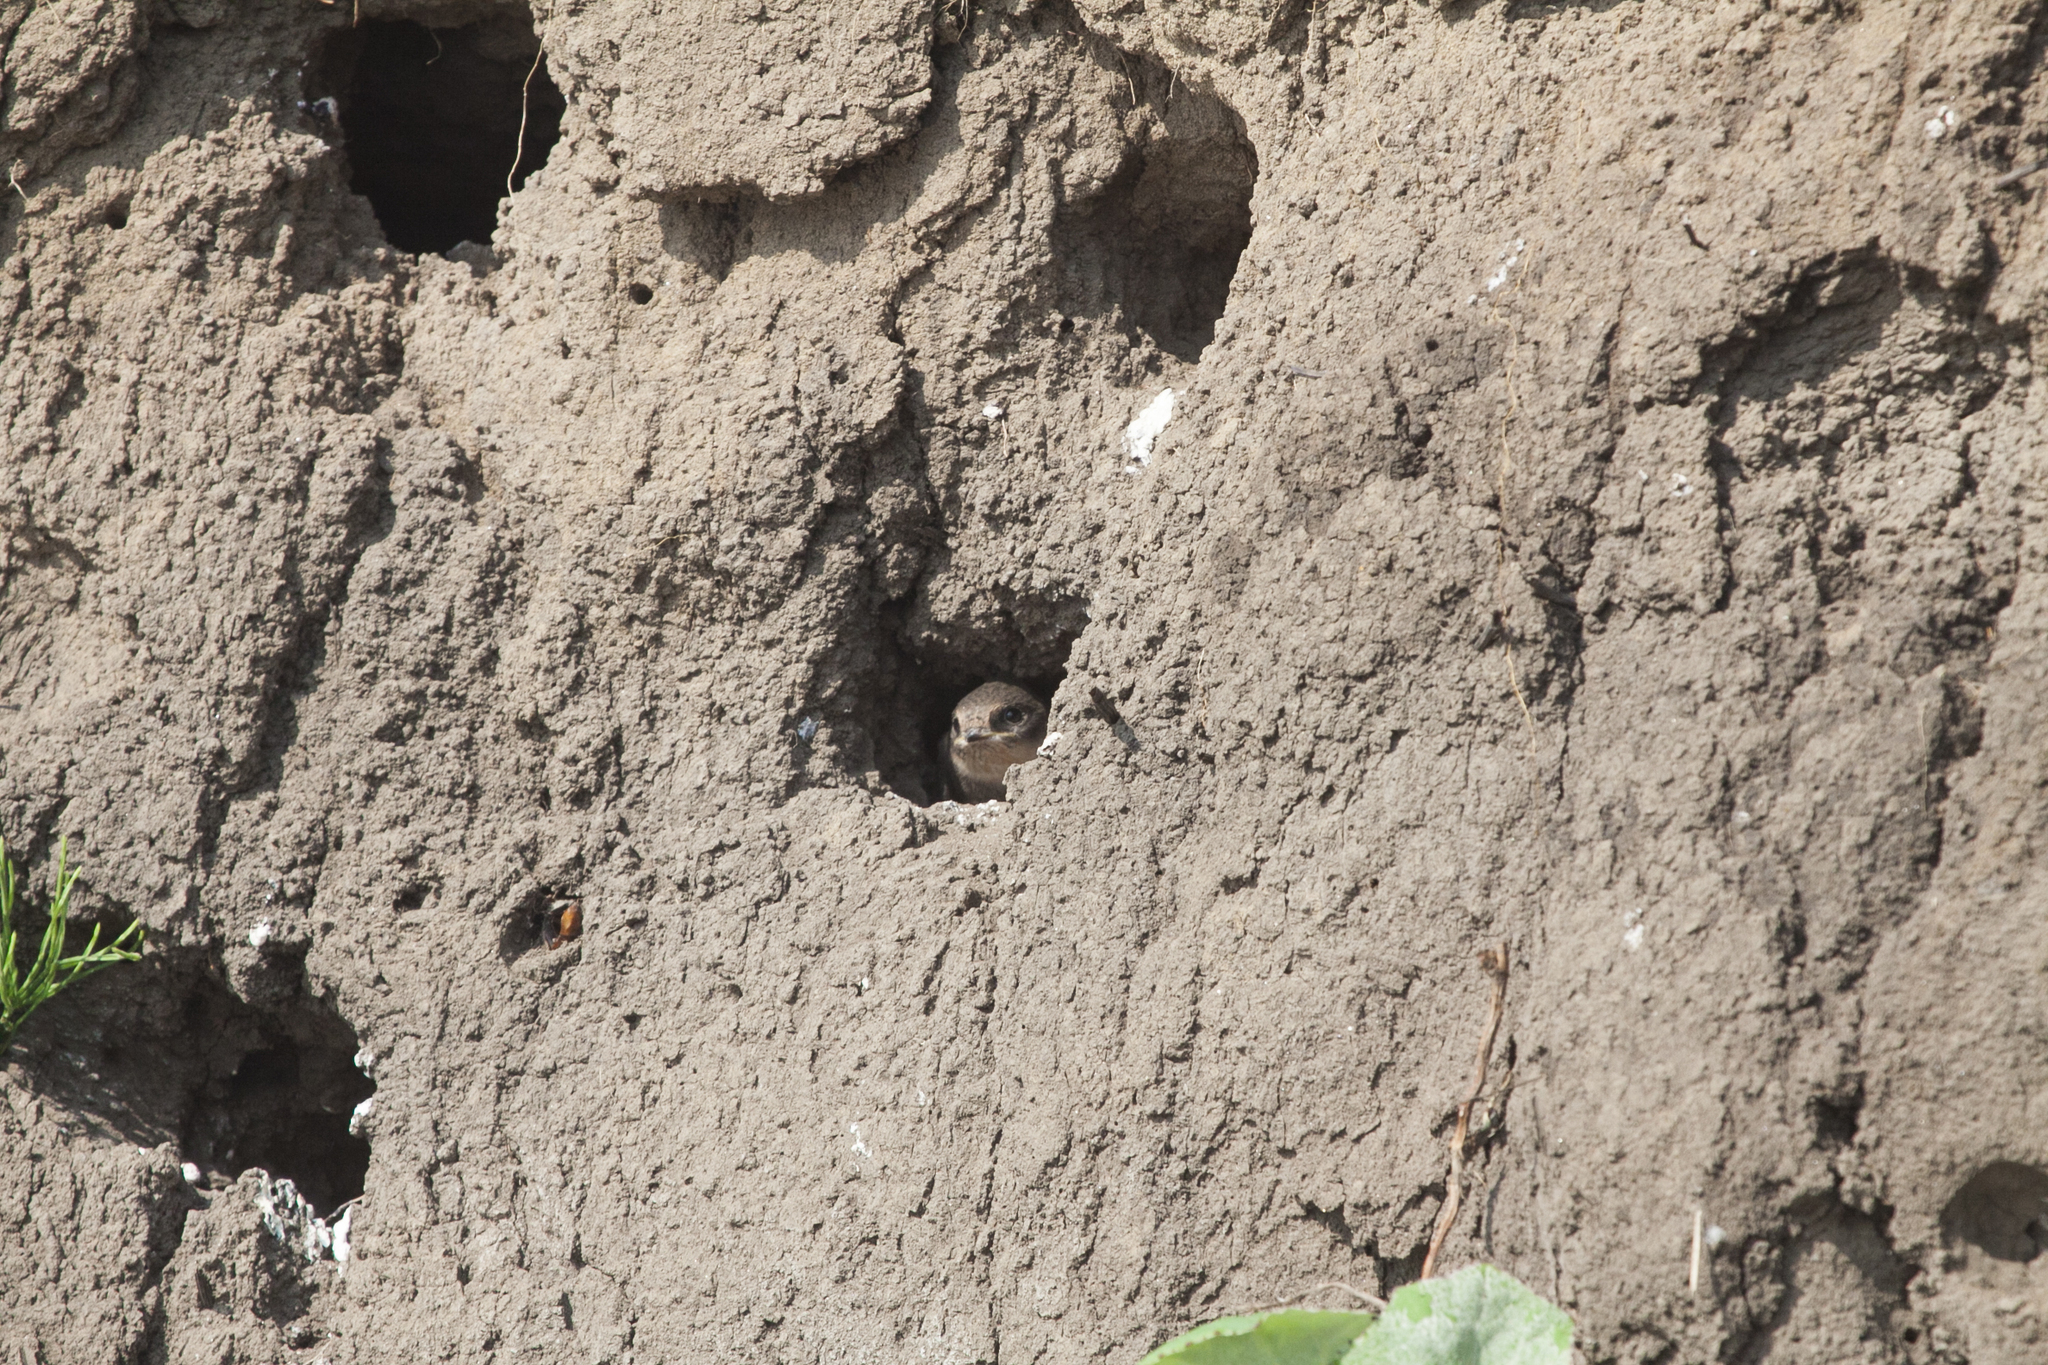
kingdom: Animalia
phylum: Chordata
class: Aves
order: Passeriformes
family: Hirundinidae
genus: Riparia
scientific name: Riparia riparia
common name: Sand martin
